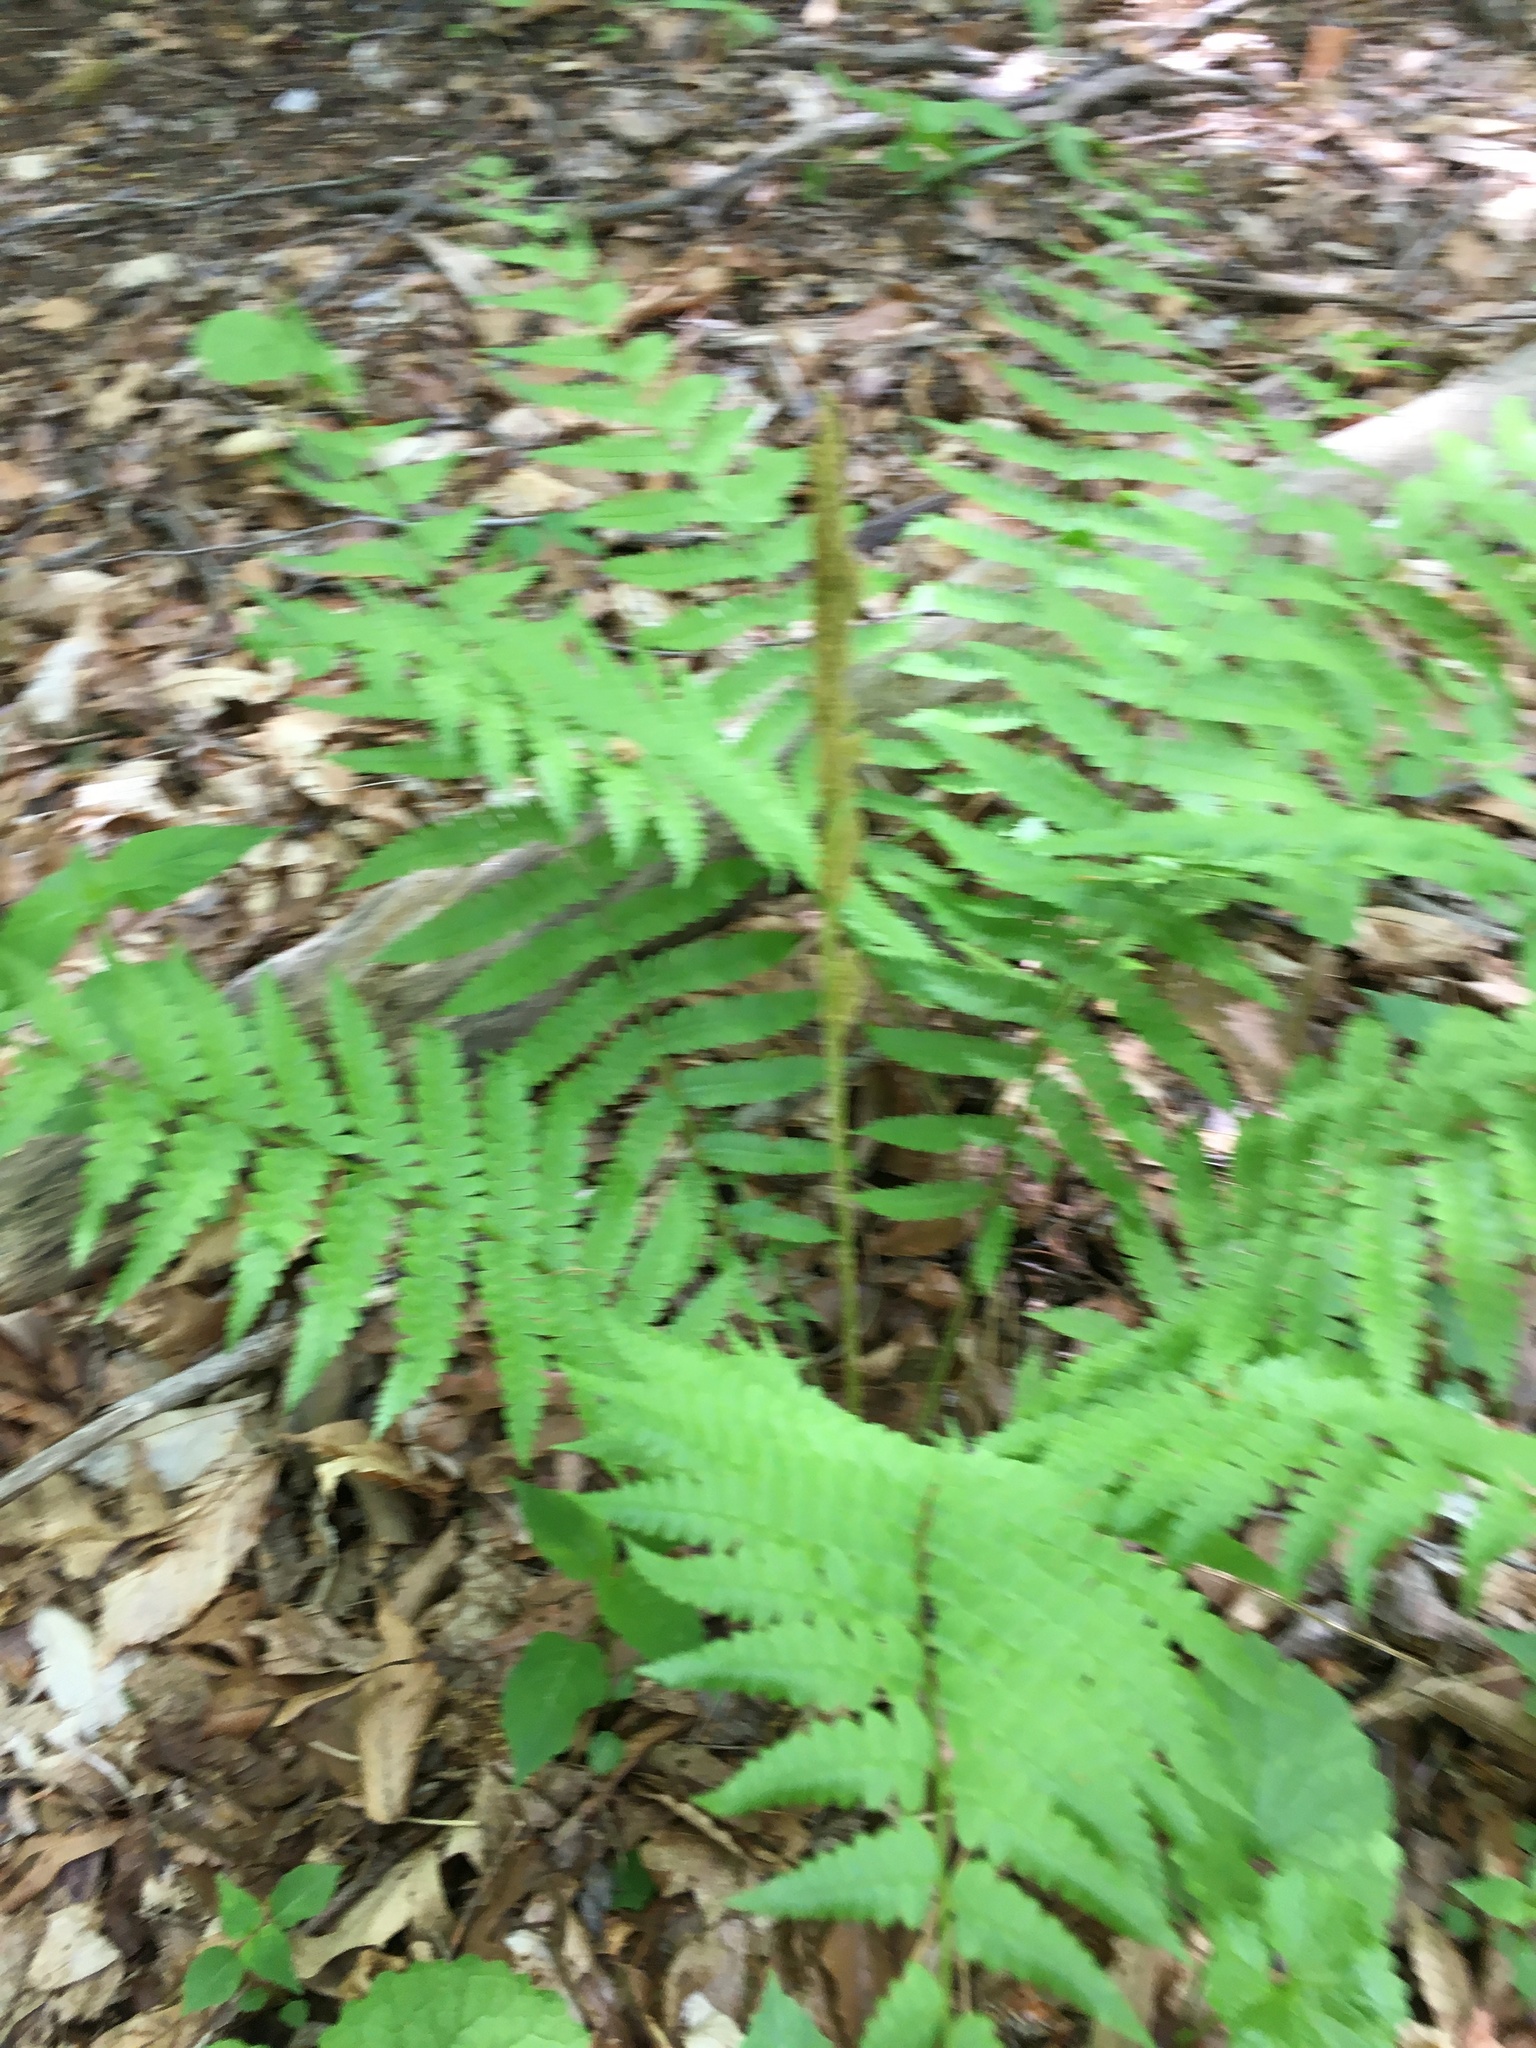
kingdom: Plantae
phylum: Tracheophyta
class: Polypodiopsida
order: Osmundales
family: Osmundaceae
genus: Osmundastrum
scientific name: Osmundastrum cinnamomeum
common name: Cinnamon fern
